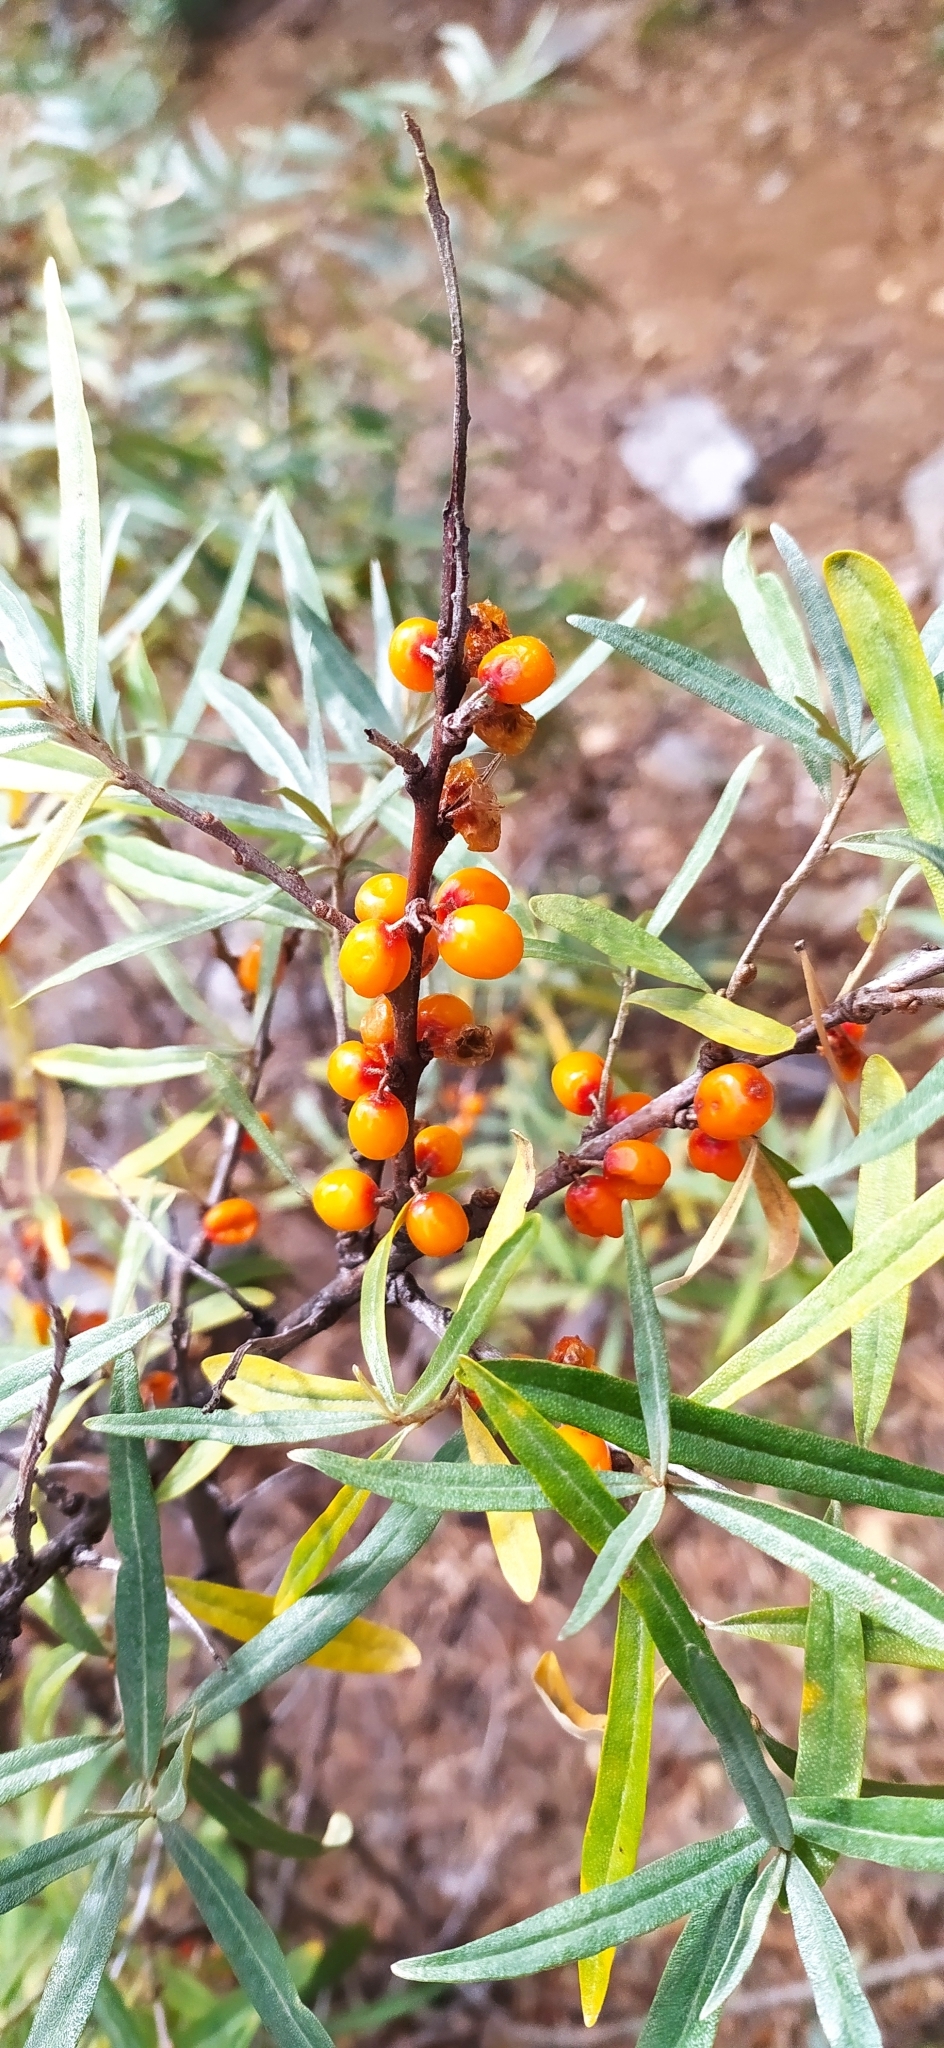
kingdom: Plantae
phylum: Tracheophyta
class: Magnoliopsida
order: Rosales
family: Elaeagnaceae
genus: Hippophae
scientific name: Hippophae rhamnoides
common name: Sea-buckthorn
